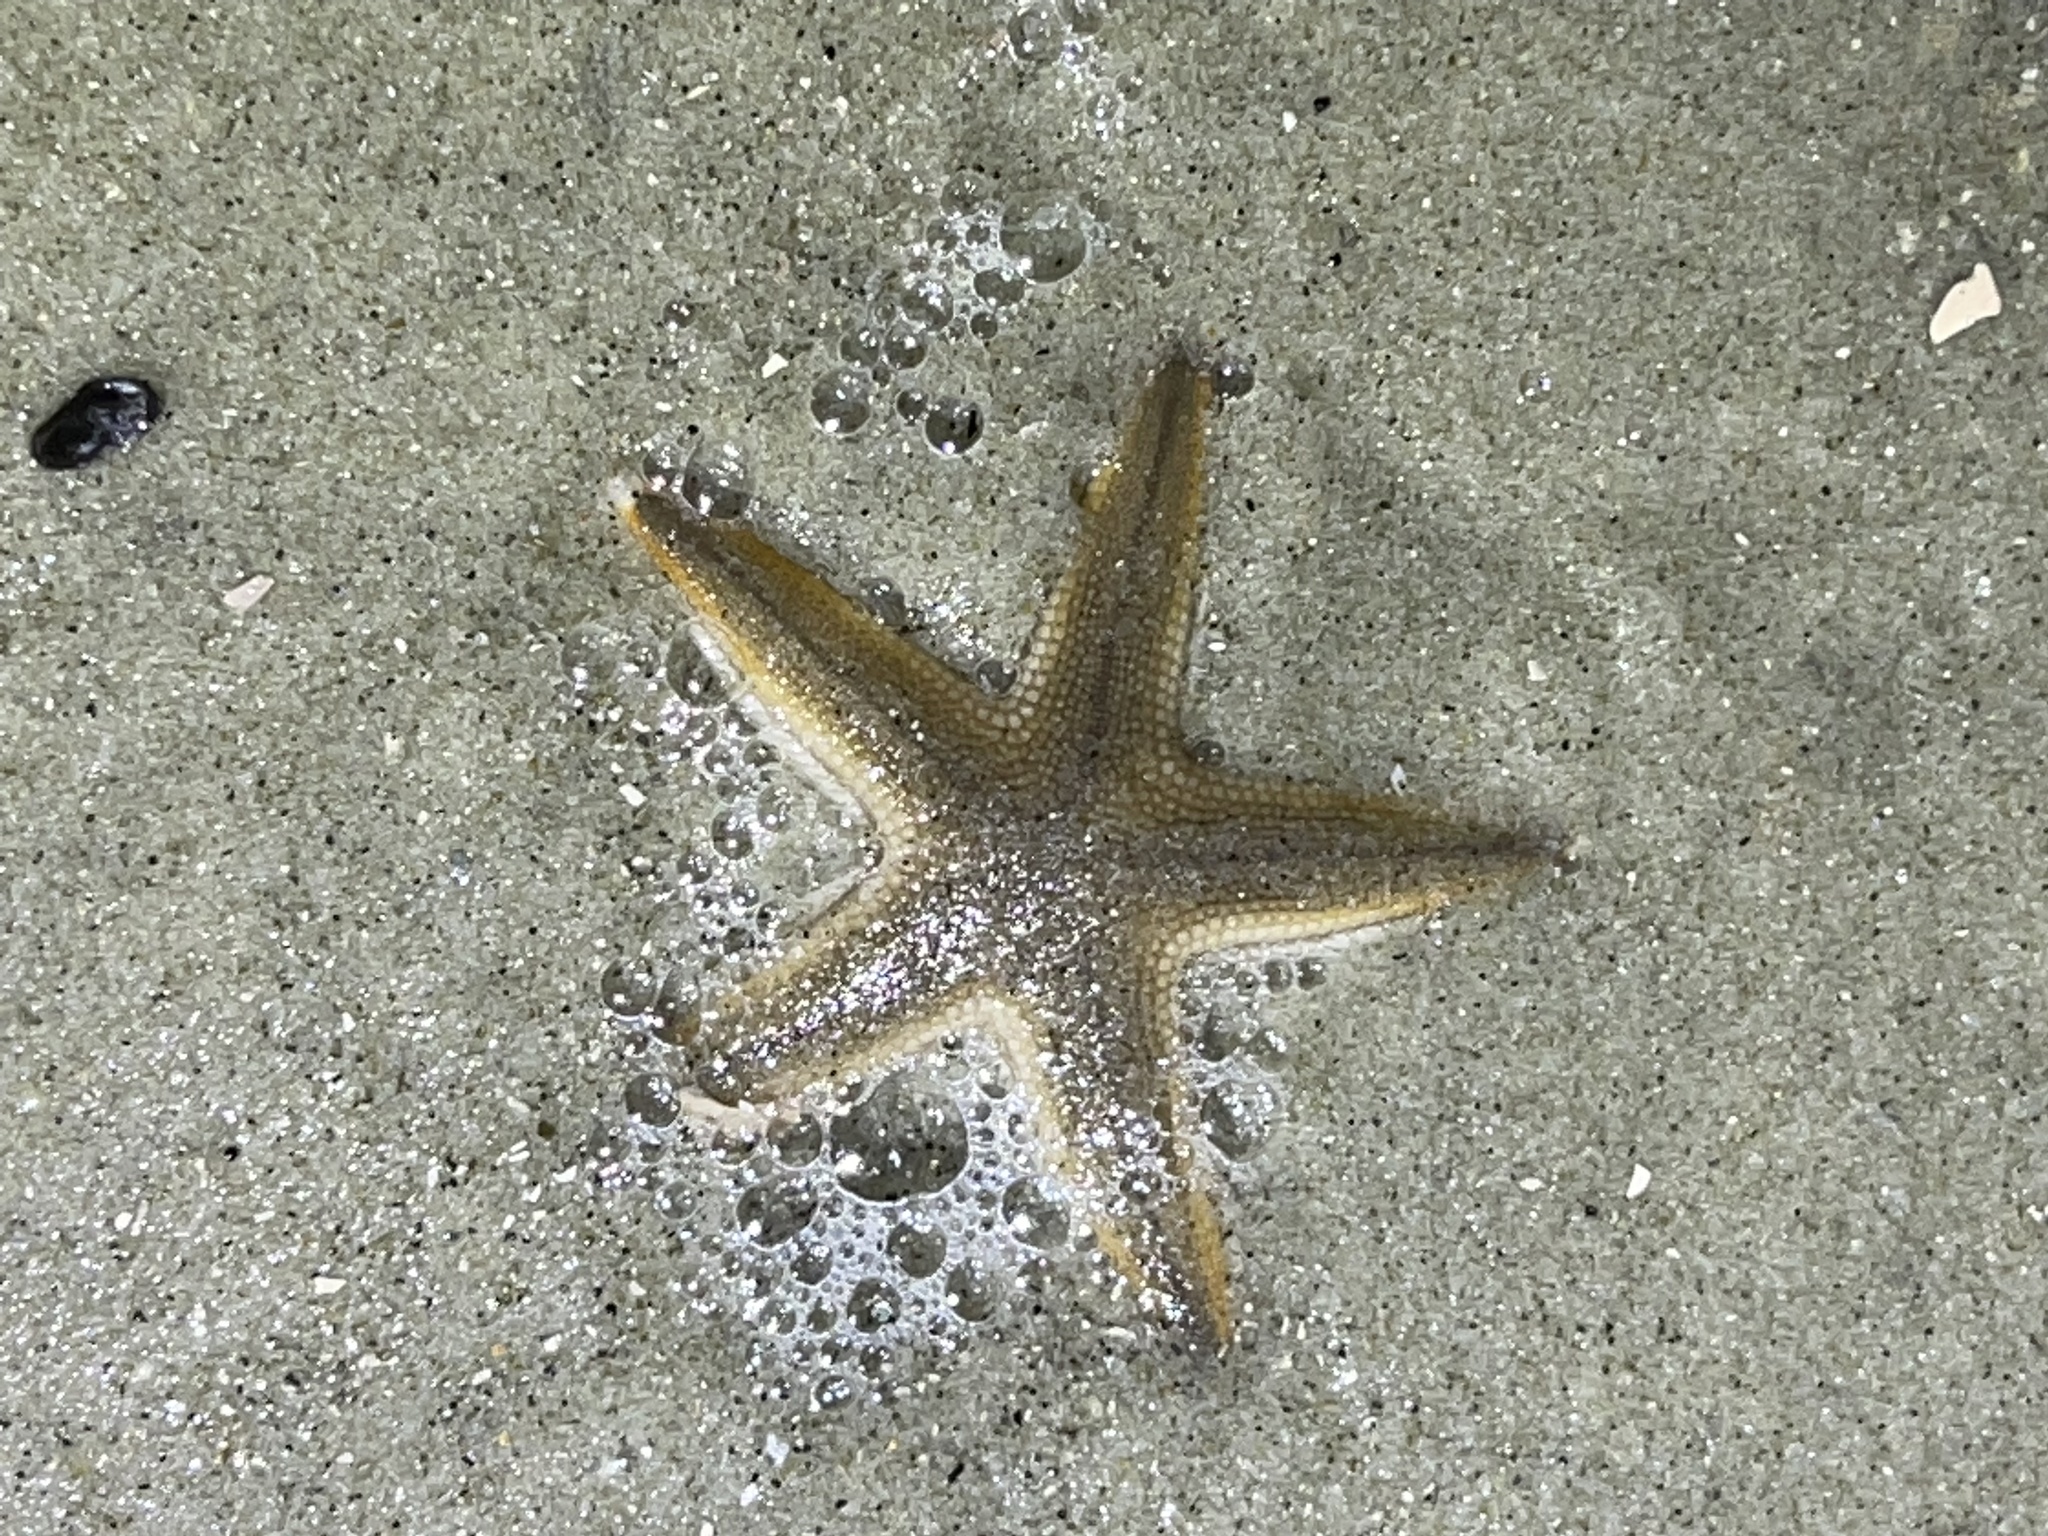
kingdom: Animalia
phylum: Echinodermata
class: Asteroidea
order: Paxillosida
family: Luidiidae
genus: Luidia
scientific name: Luidia clathrata
